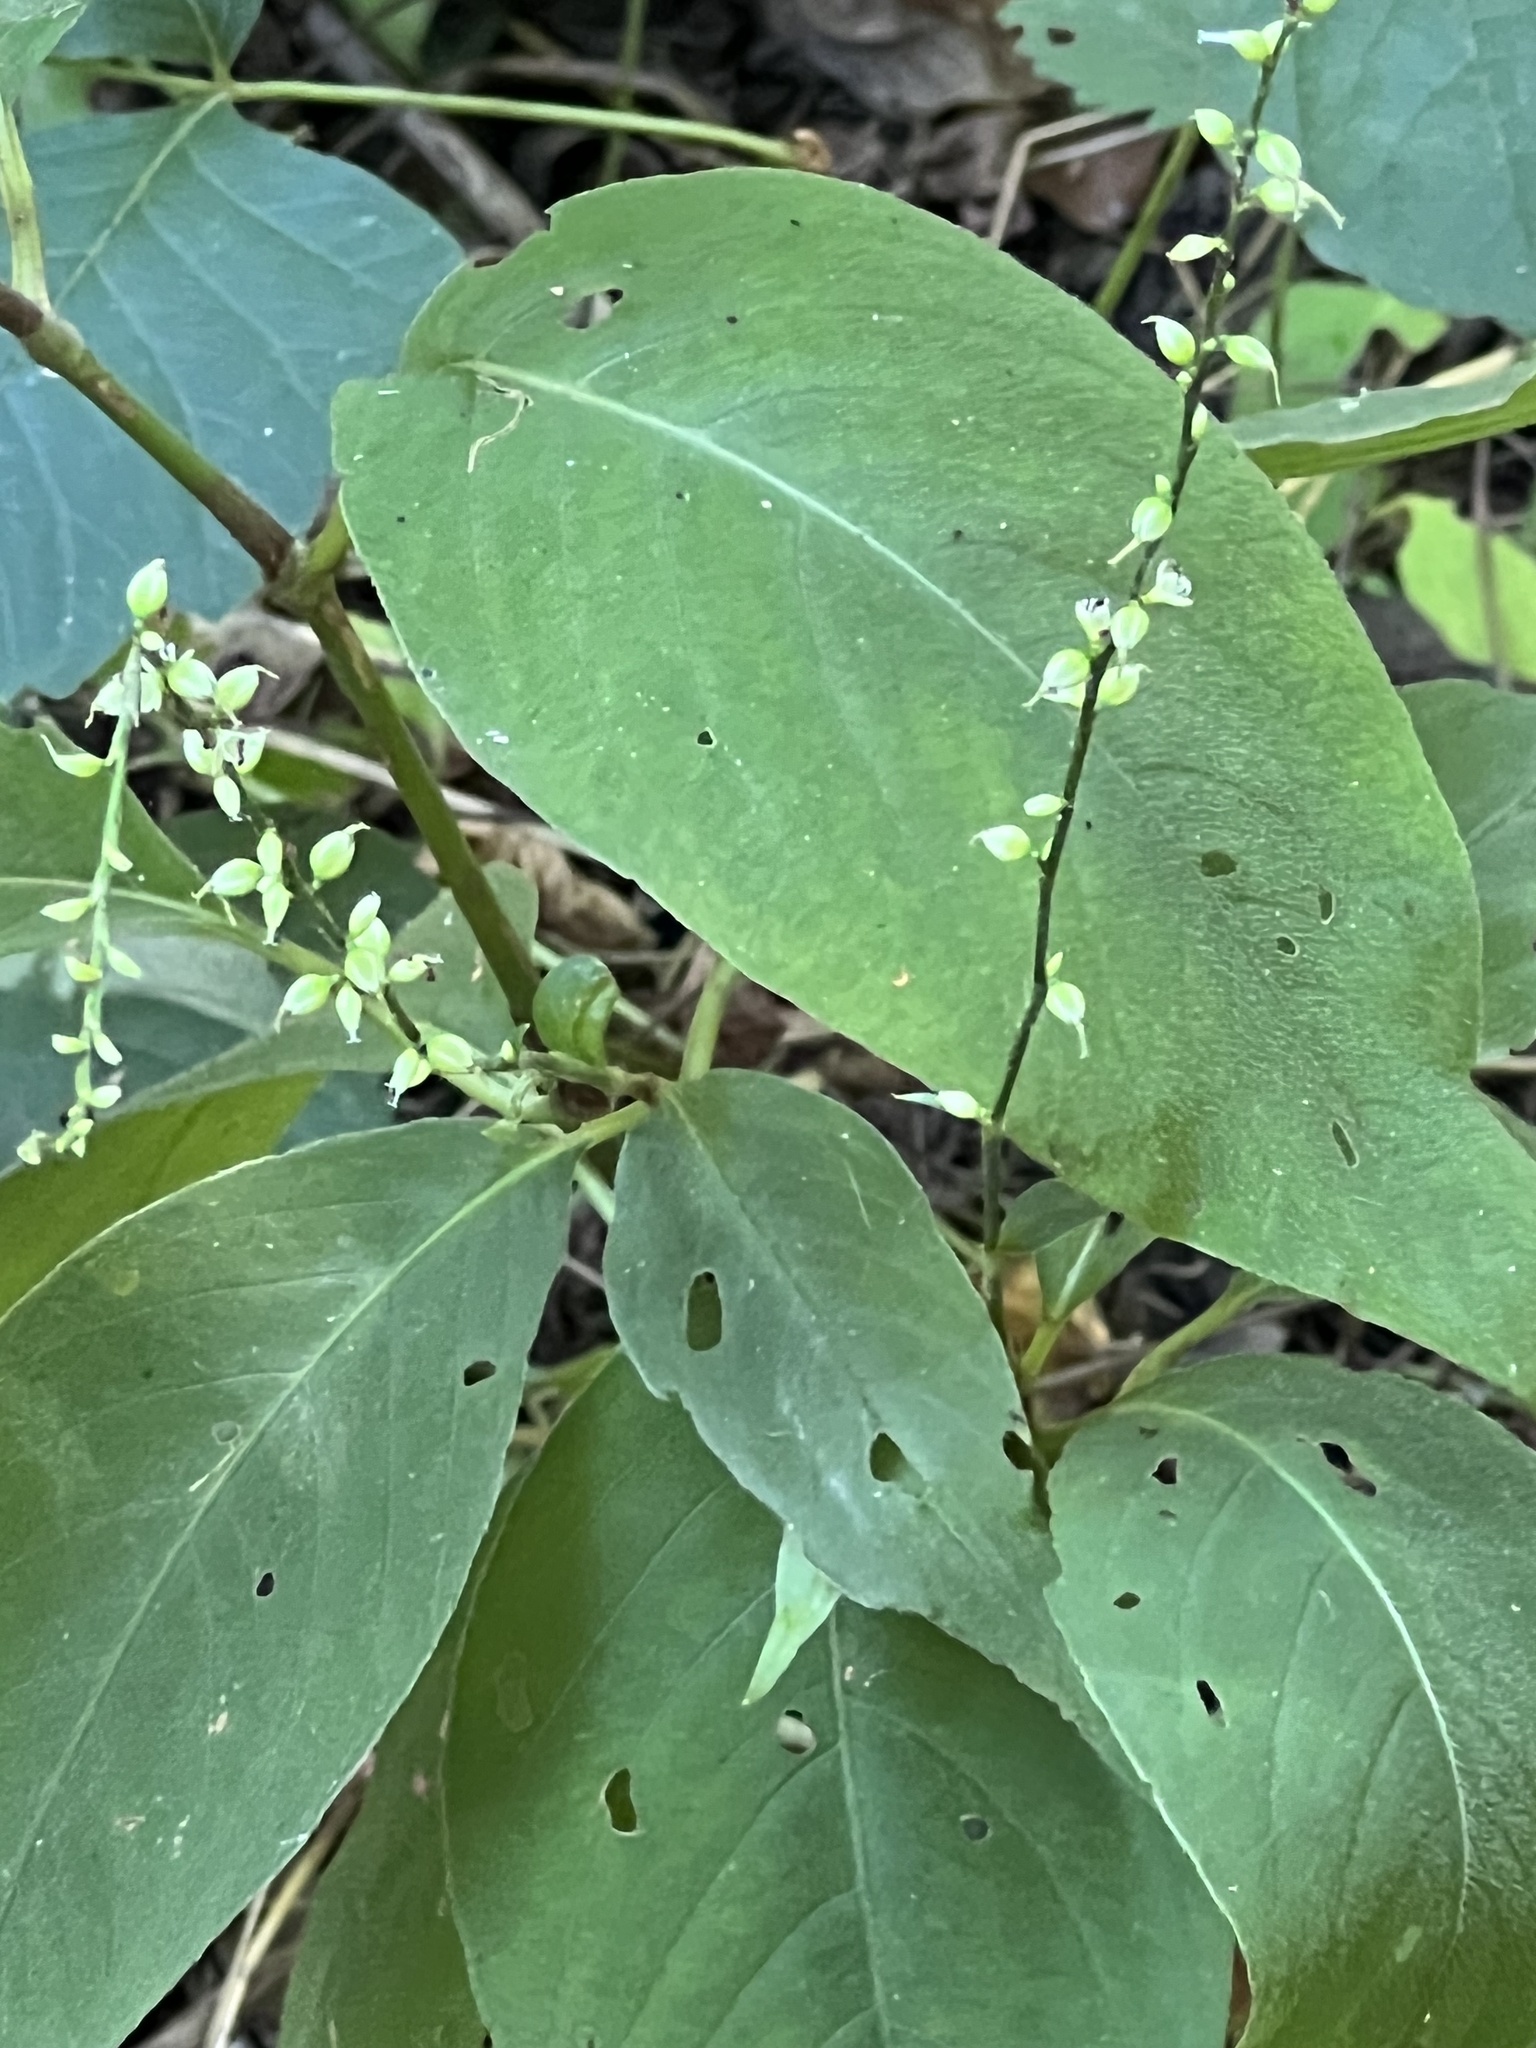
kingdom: Plantae
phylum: Tracheophyta
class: Magnoliopsida
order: Caryophyllales
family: Polygonaceae
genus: Persicaria
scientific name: Persicaria virginiana
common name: Jumpseed
